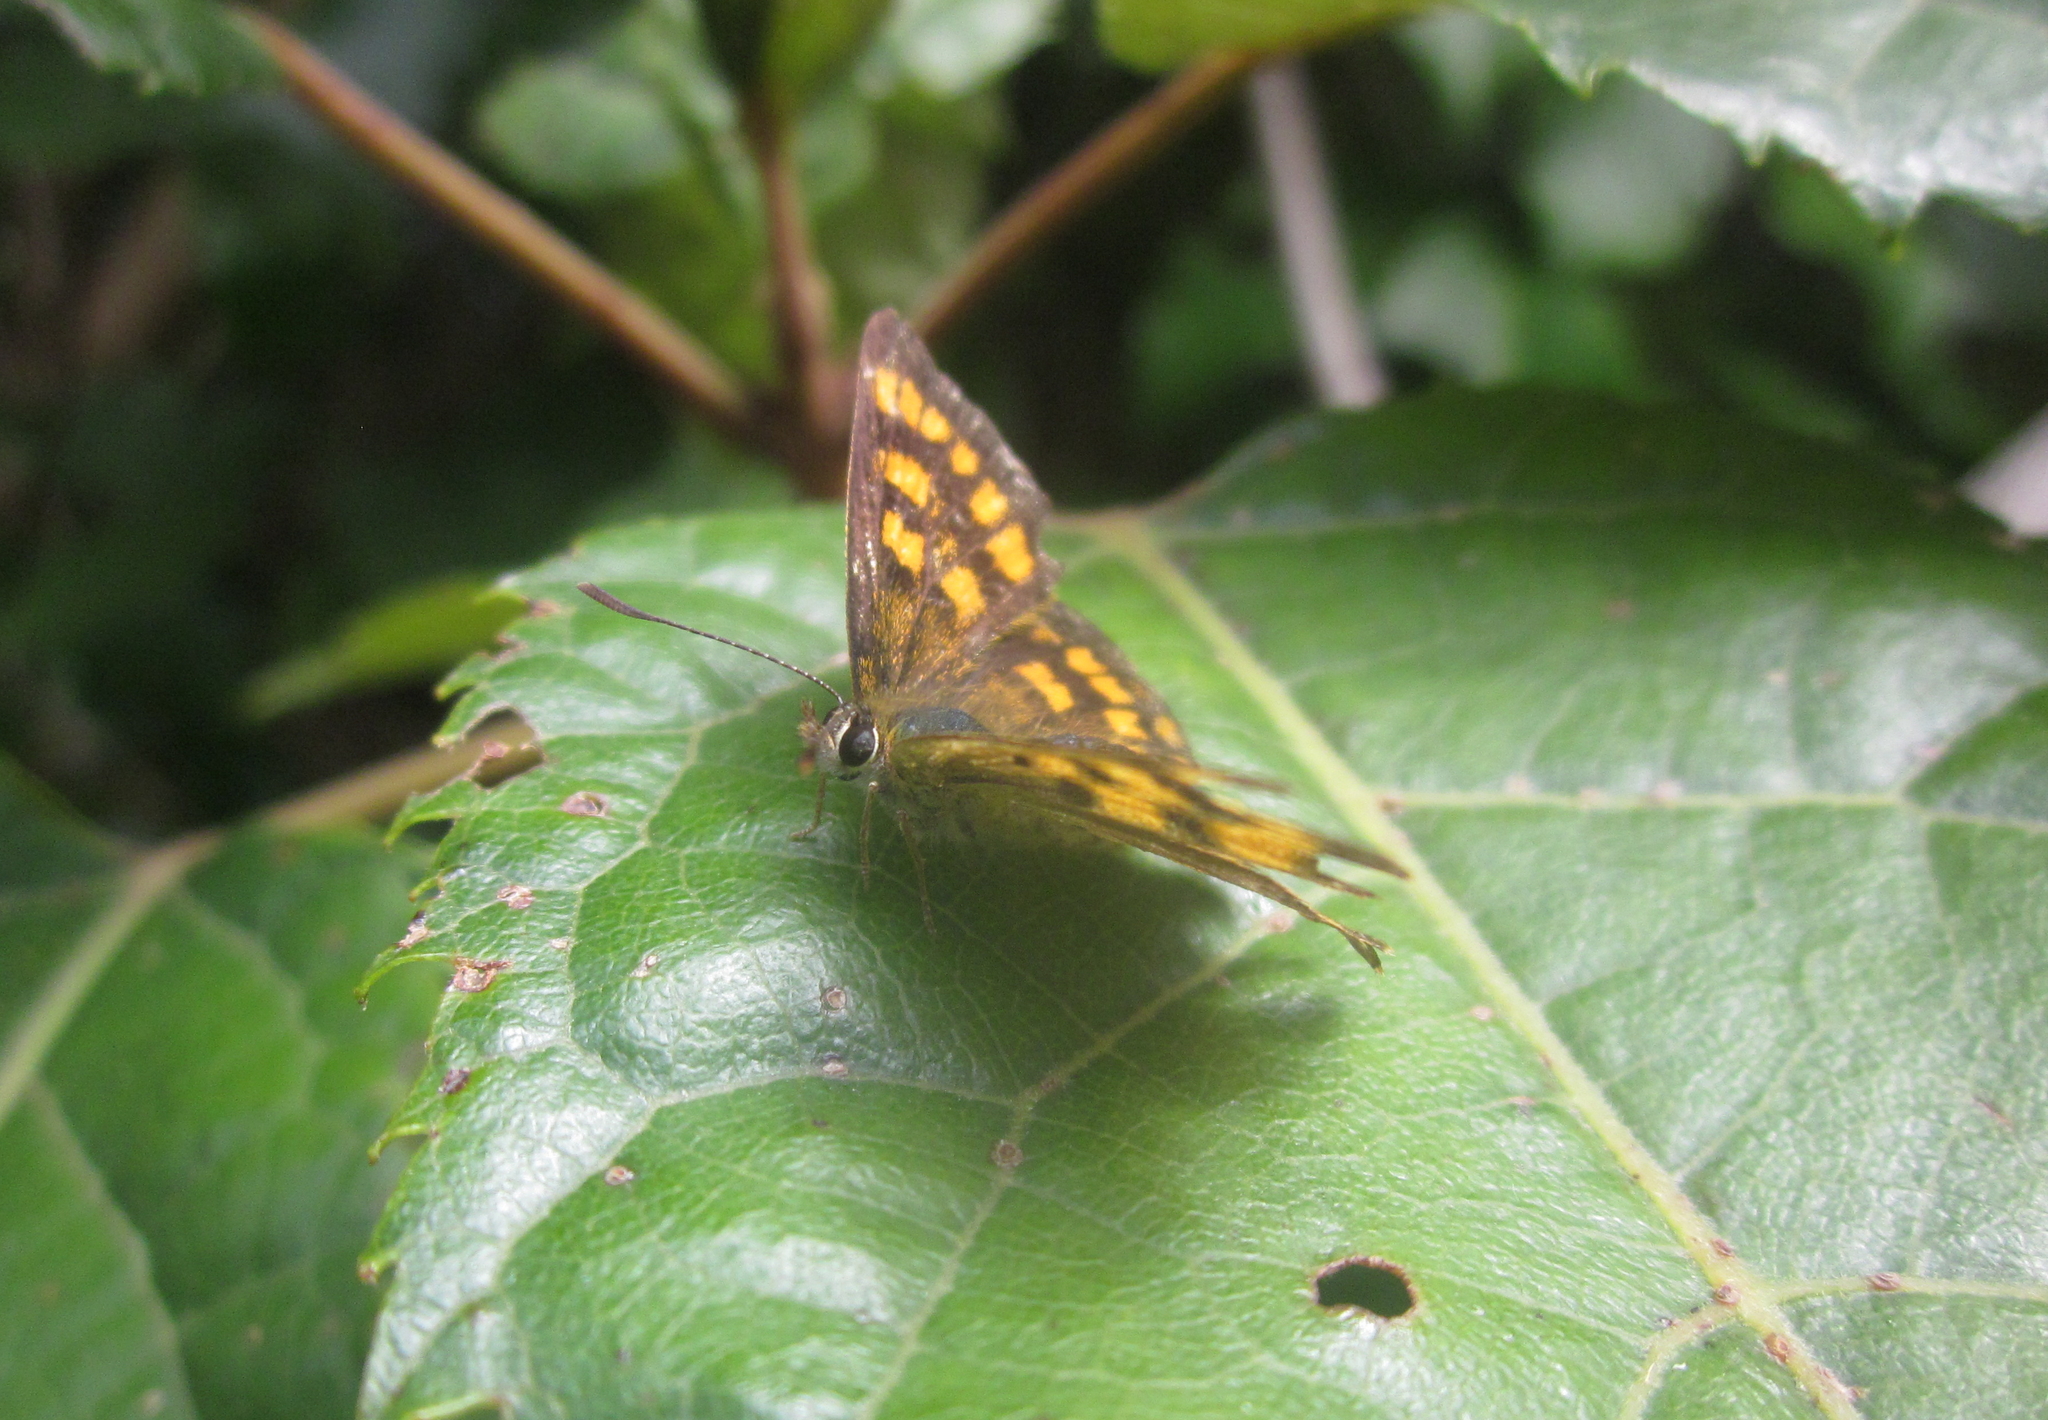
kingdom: Animalia
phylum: Arthropoda
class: Insecta
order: Lepidoptera
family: Lycaenidae
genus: Lycaena
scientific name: Lycaena
